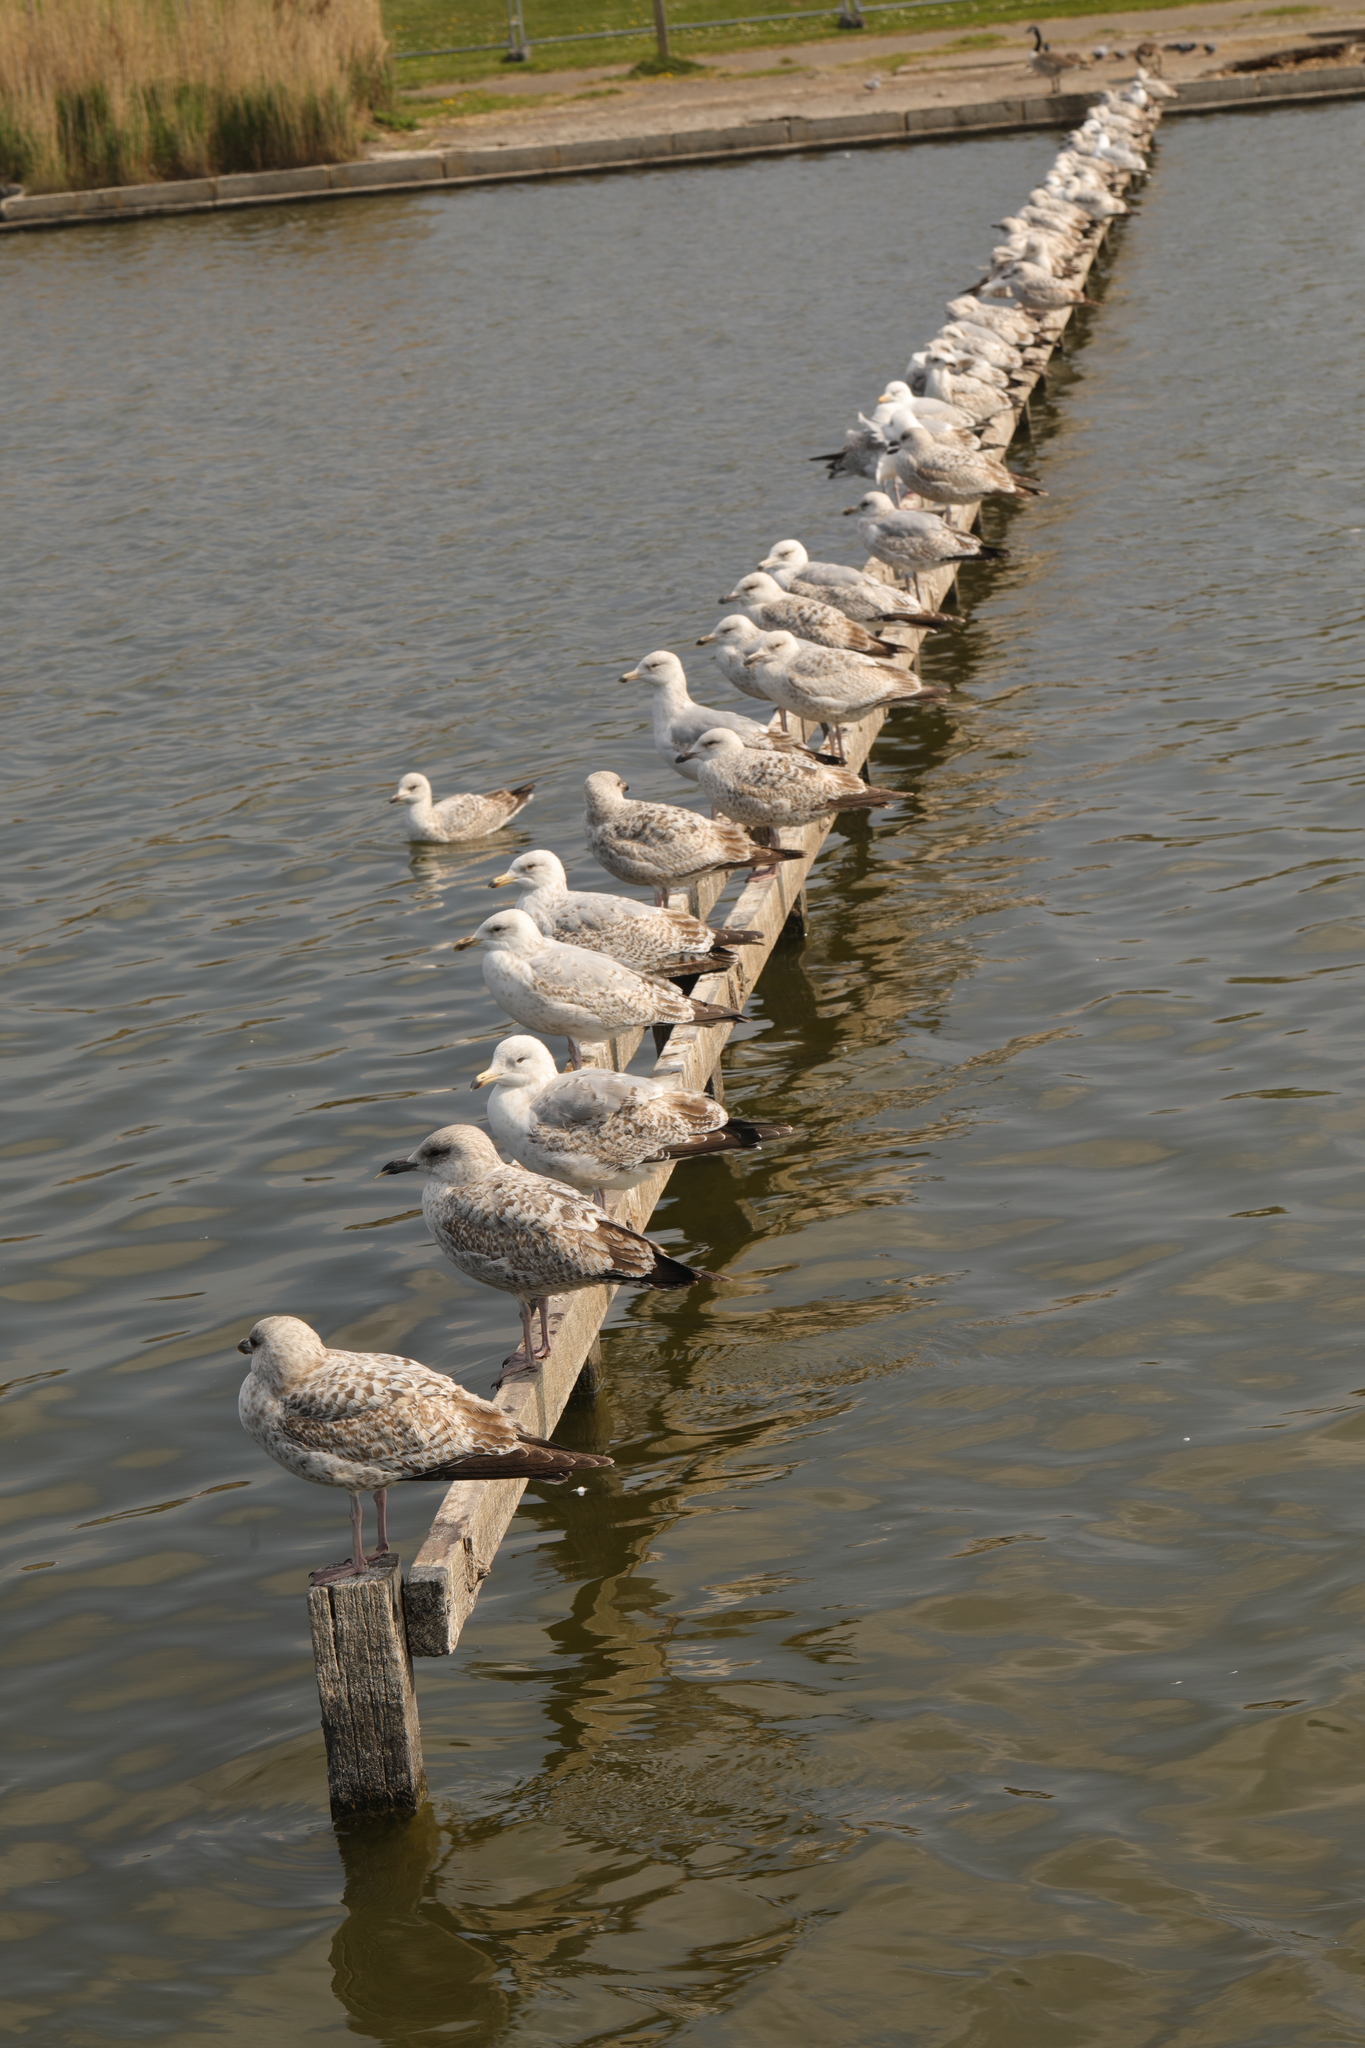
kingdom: Animalia
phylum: Chordata
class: Aves
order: Charadriiformes
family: Laridae
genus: Larus
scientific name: Larus argentatus
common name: Herring gull
